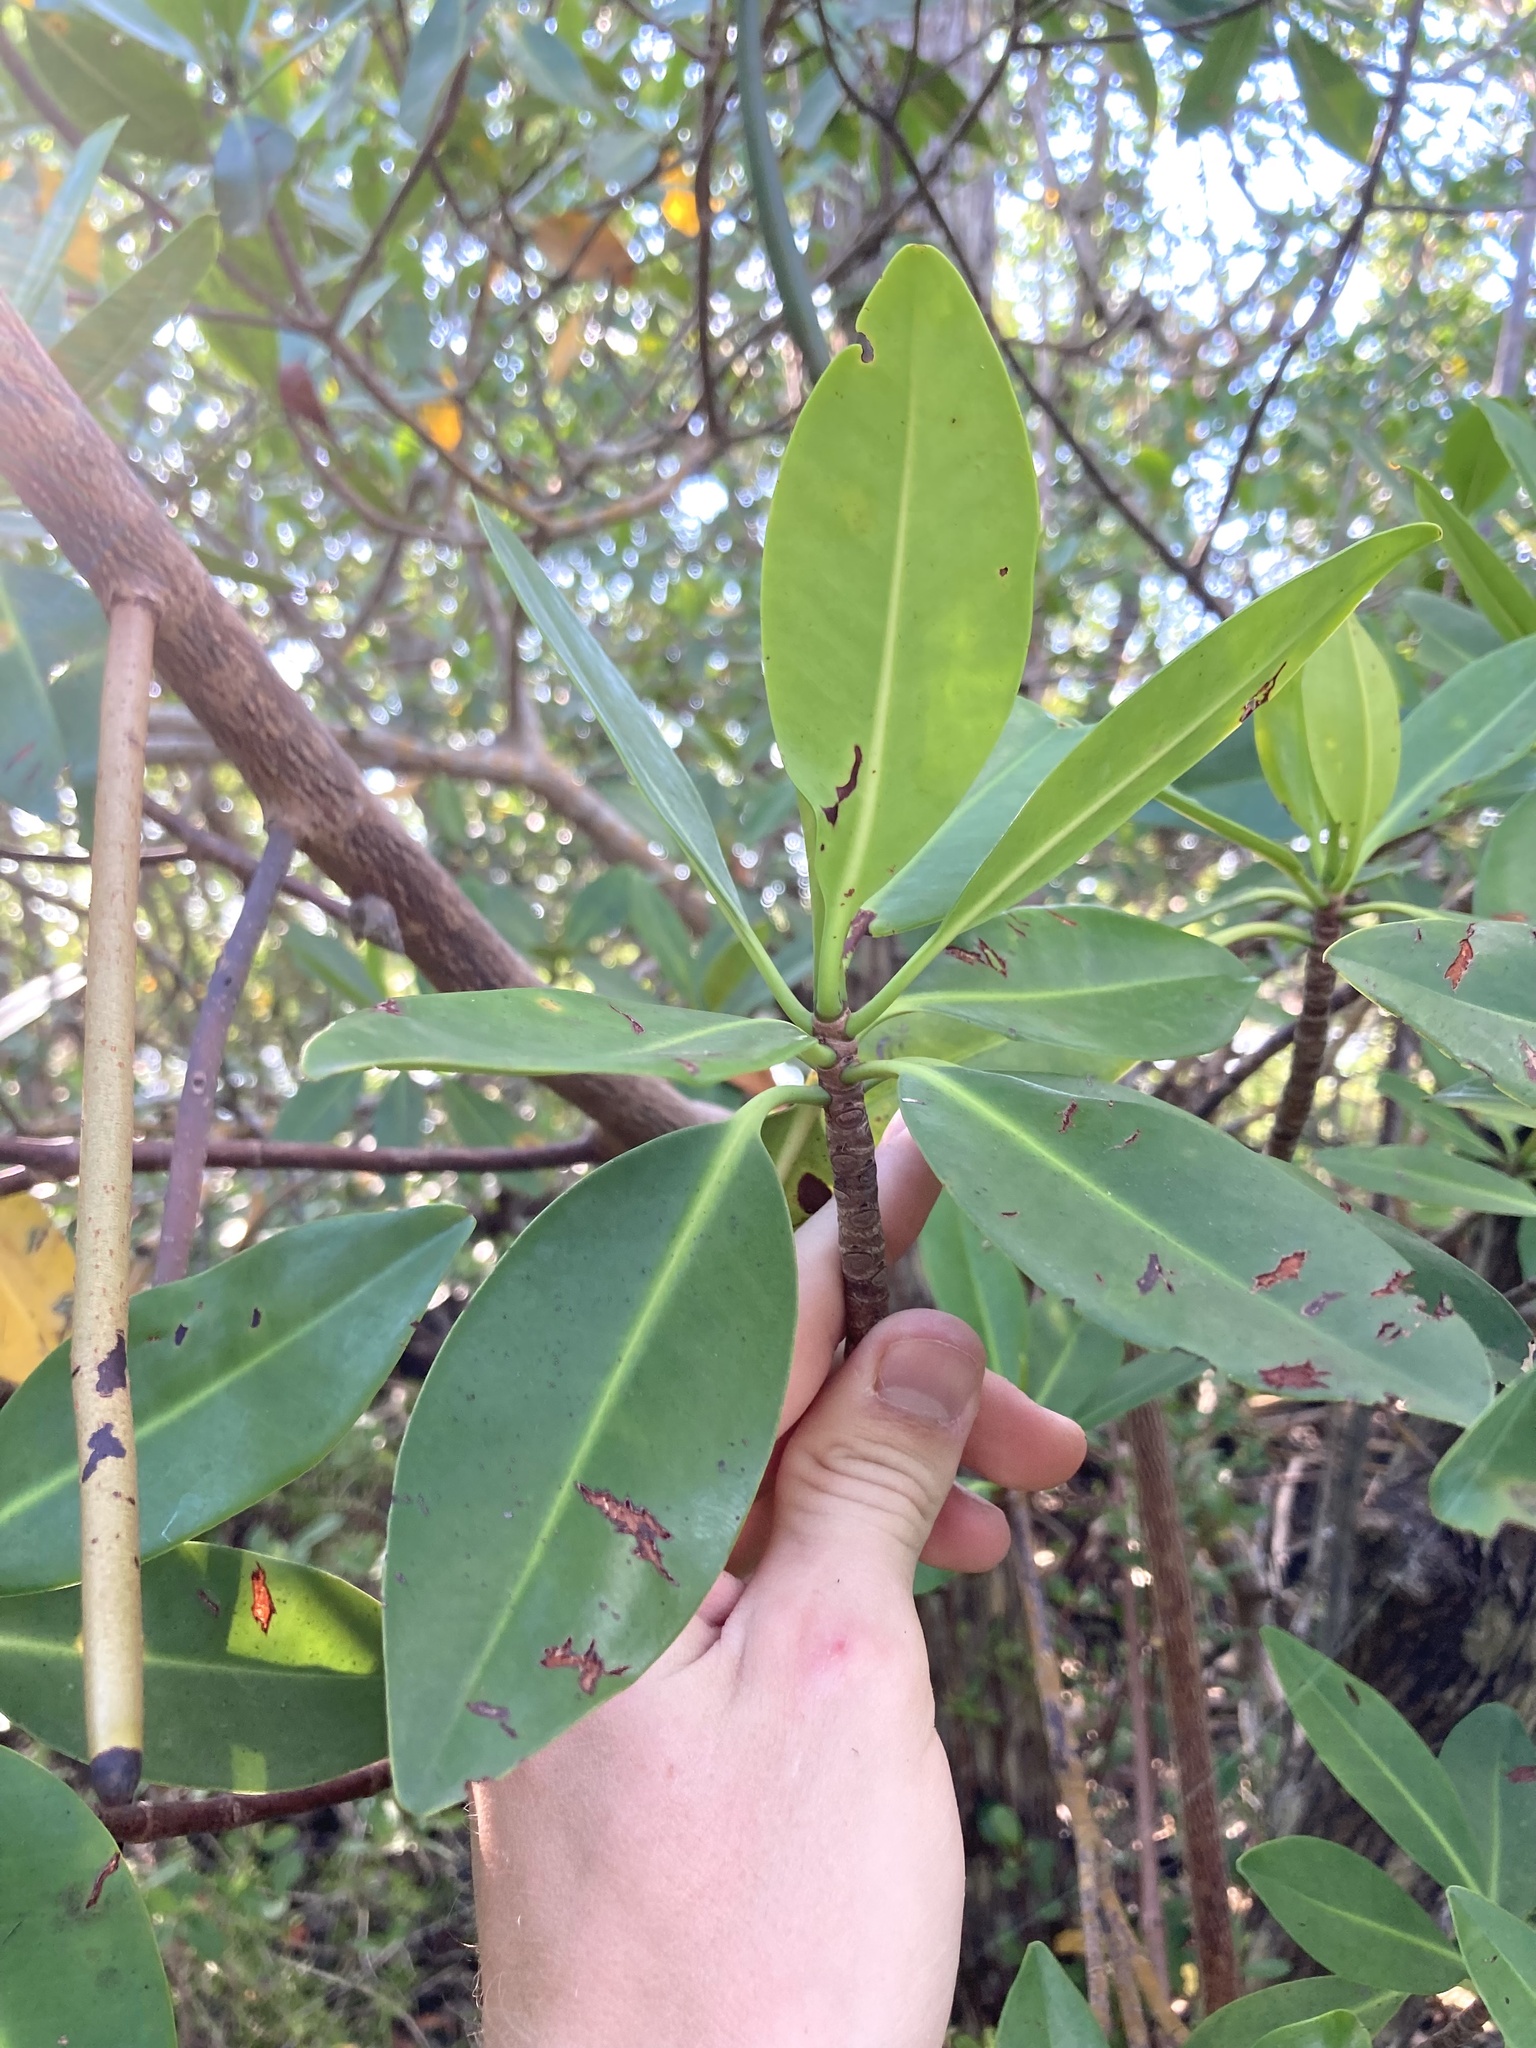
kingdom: Plantae
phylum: Tracheophyta
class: Magnoliopsida
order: Malpighiales
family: Rhizophoraceae
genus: Rhizophora
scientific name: Rhizophora mangle
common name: Red mangrove
